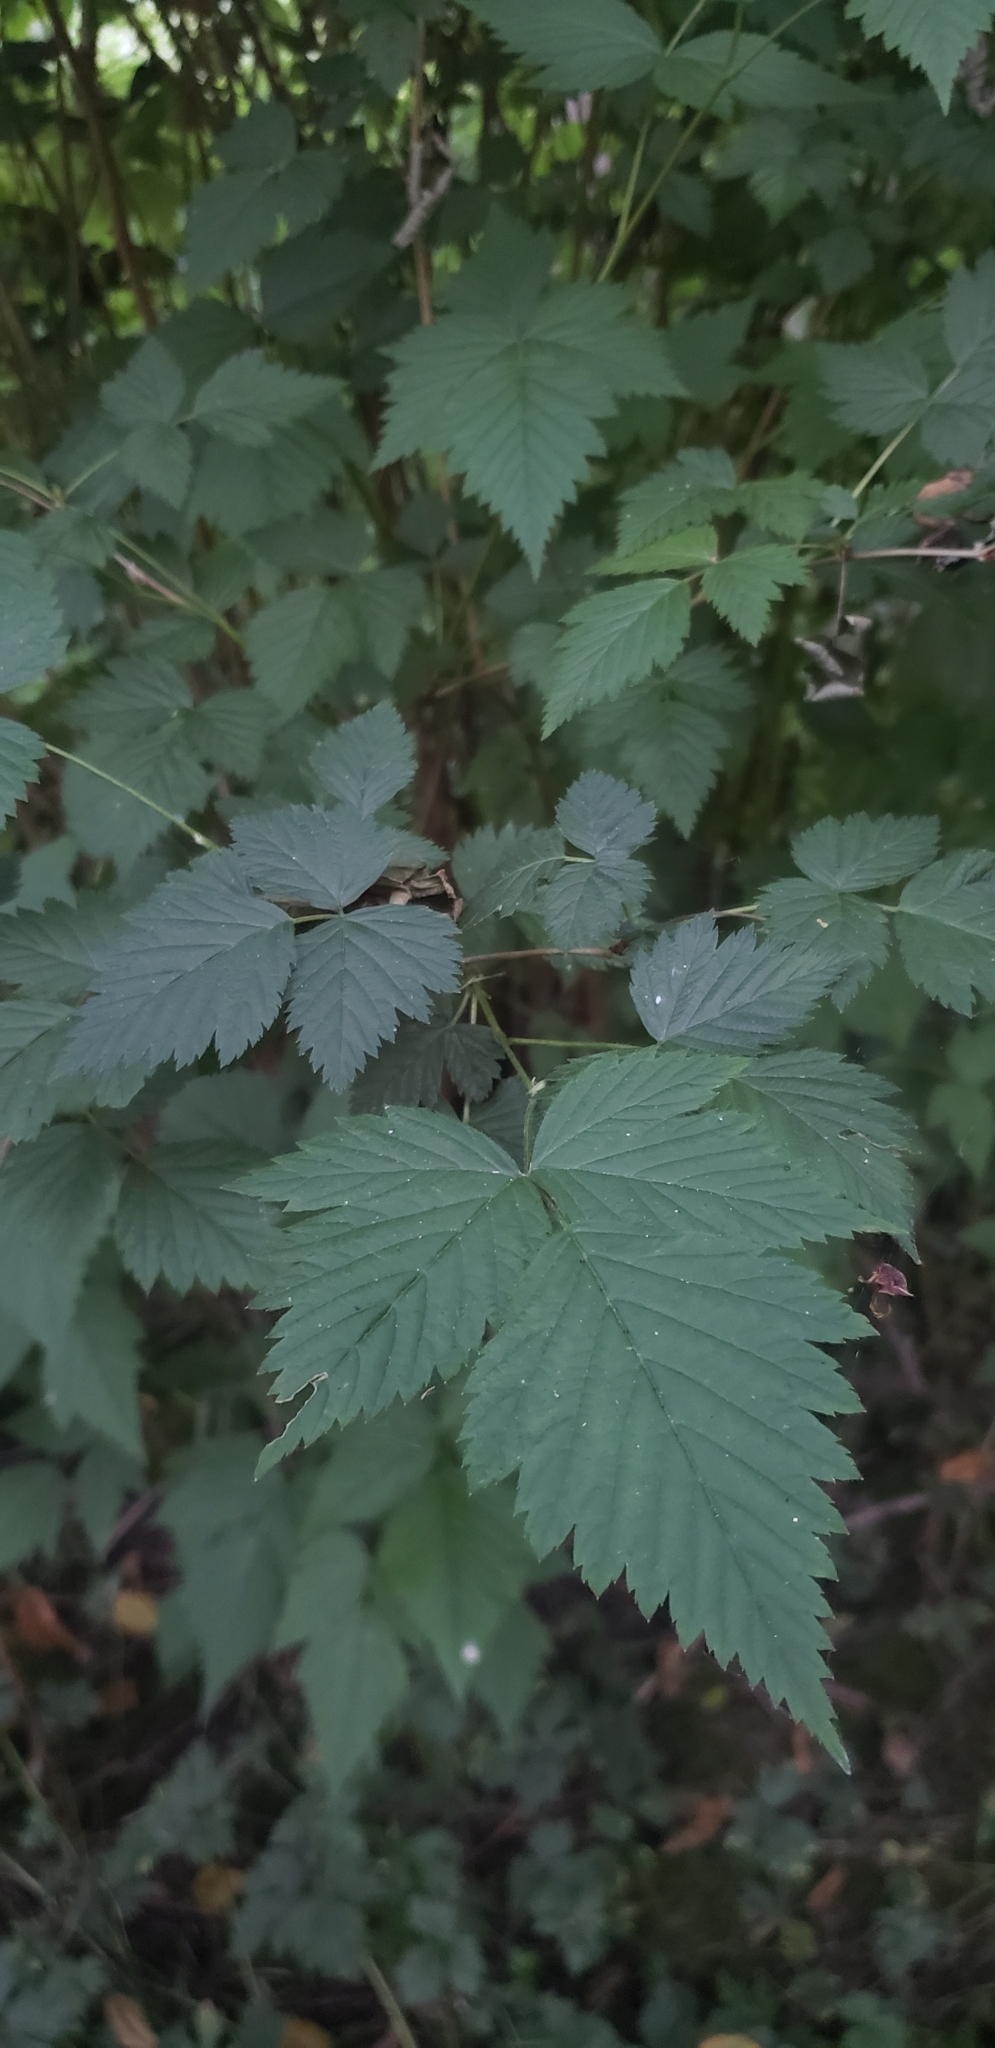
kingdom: Plantae
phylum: Tracheophyta
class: Magnoliopsida
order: Rosales
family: Rosaceae
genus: Rubus
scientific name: Rubus spectabilis
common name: Salmonberry
